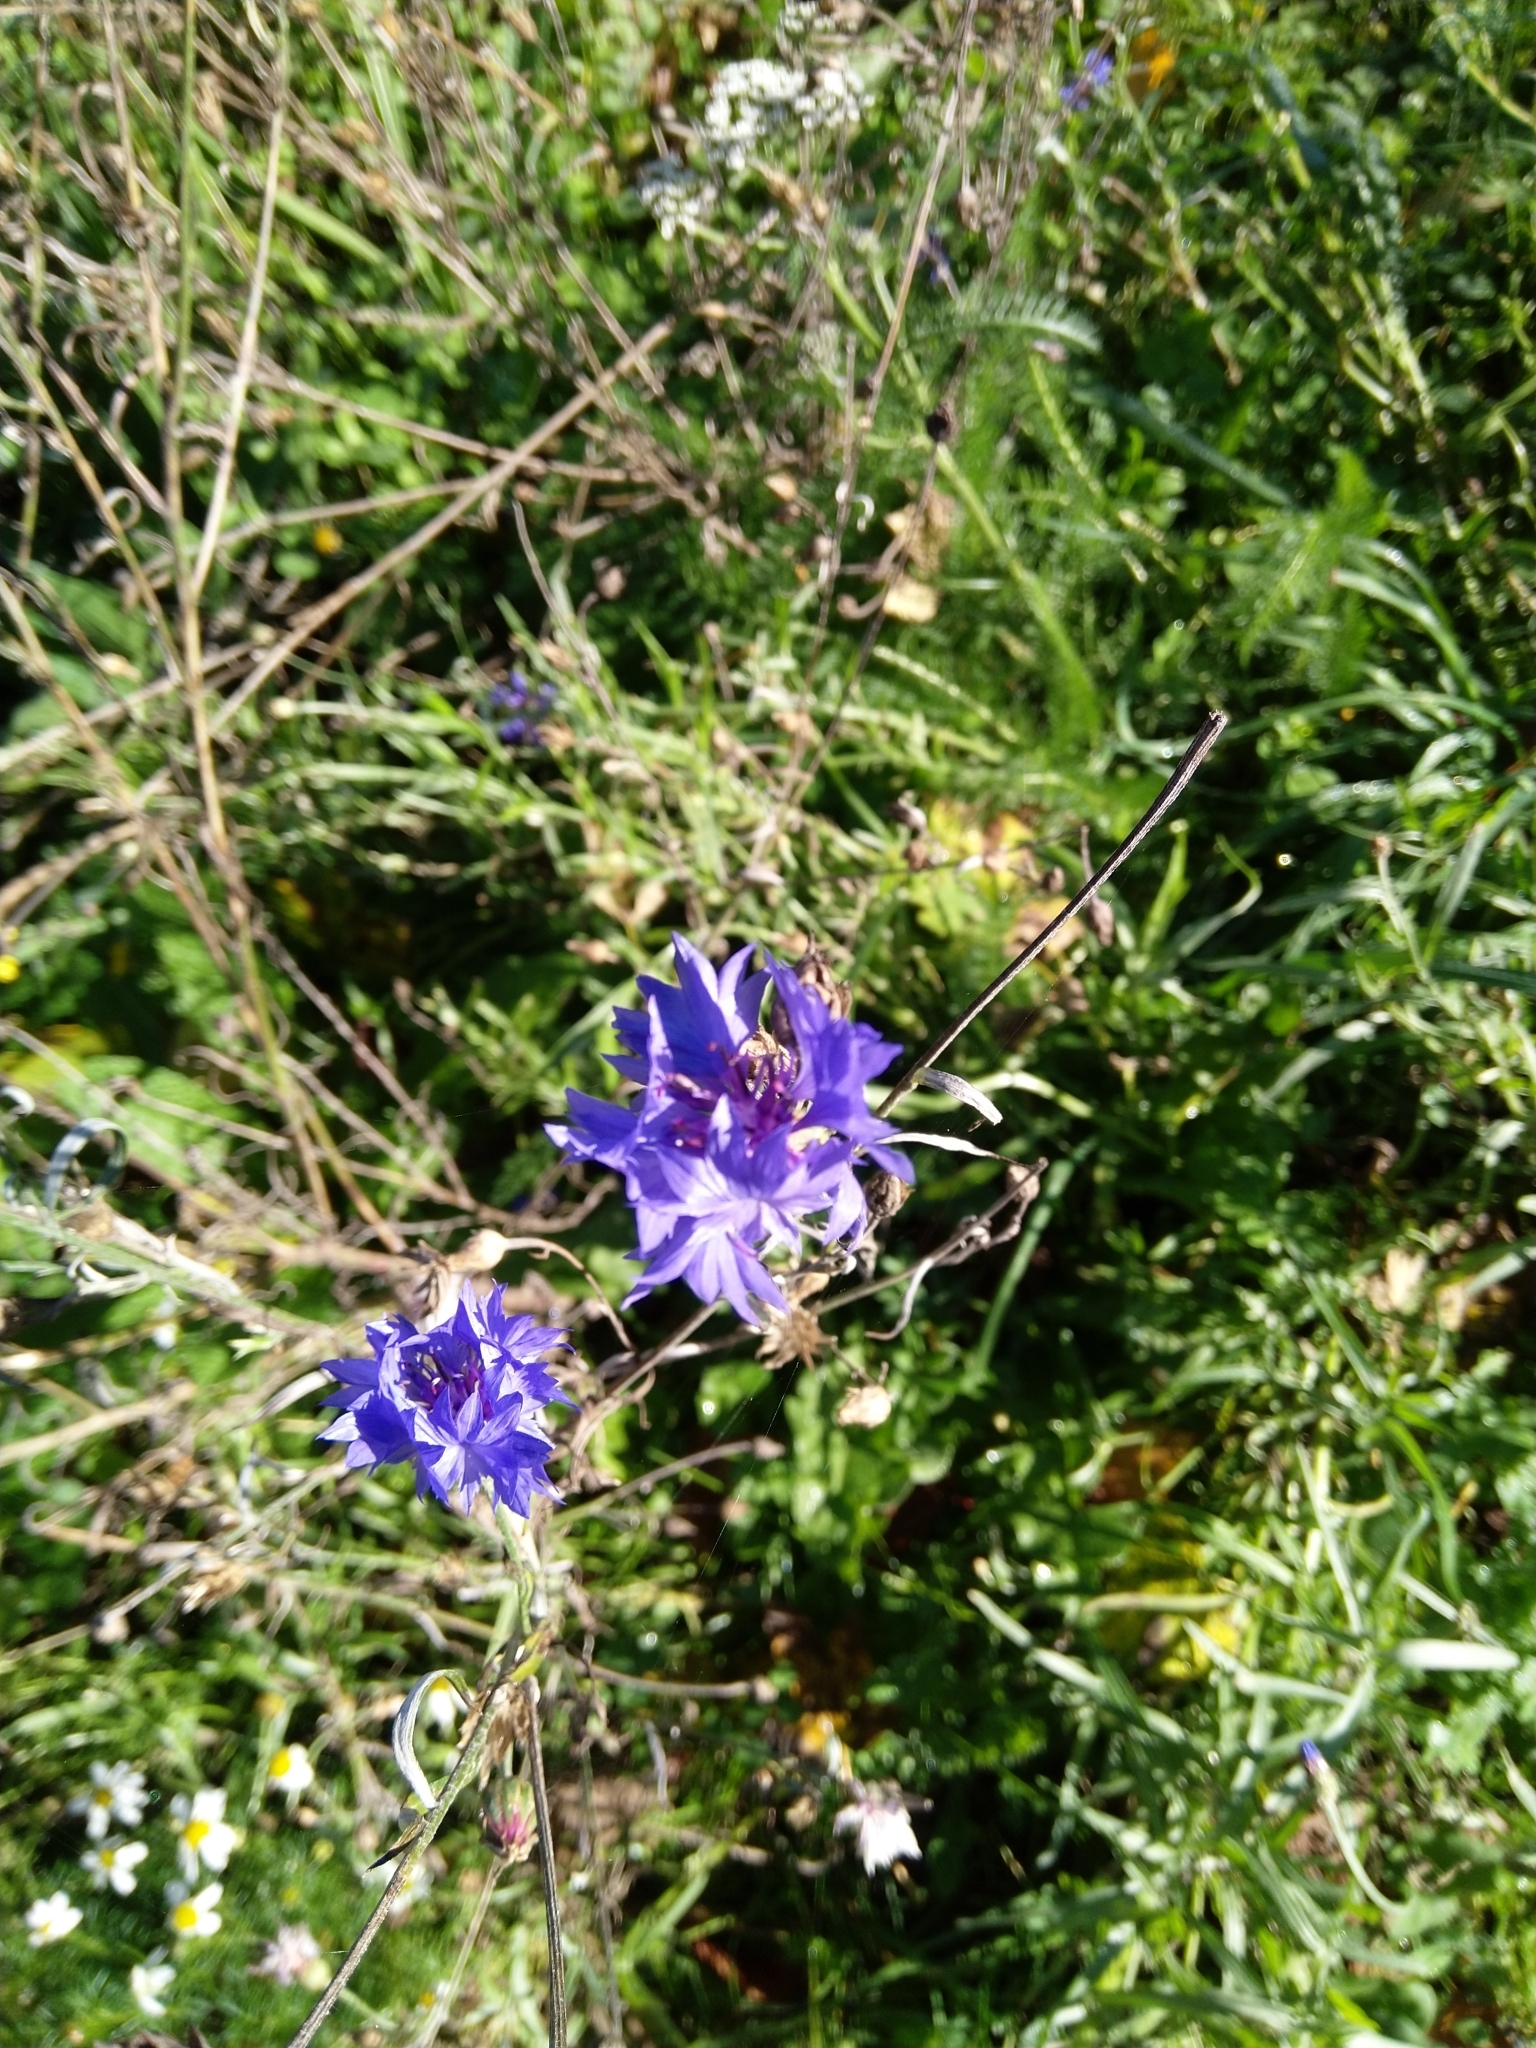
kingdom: Plantae
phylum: Tracheophyta
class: Magnoliopsida
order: Asterales
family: Asteraceae
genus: Centaurea
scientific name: Centaurea cyanus
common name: Cornflower
